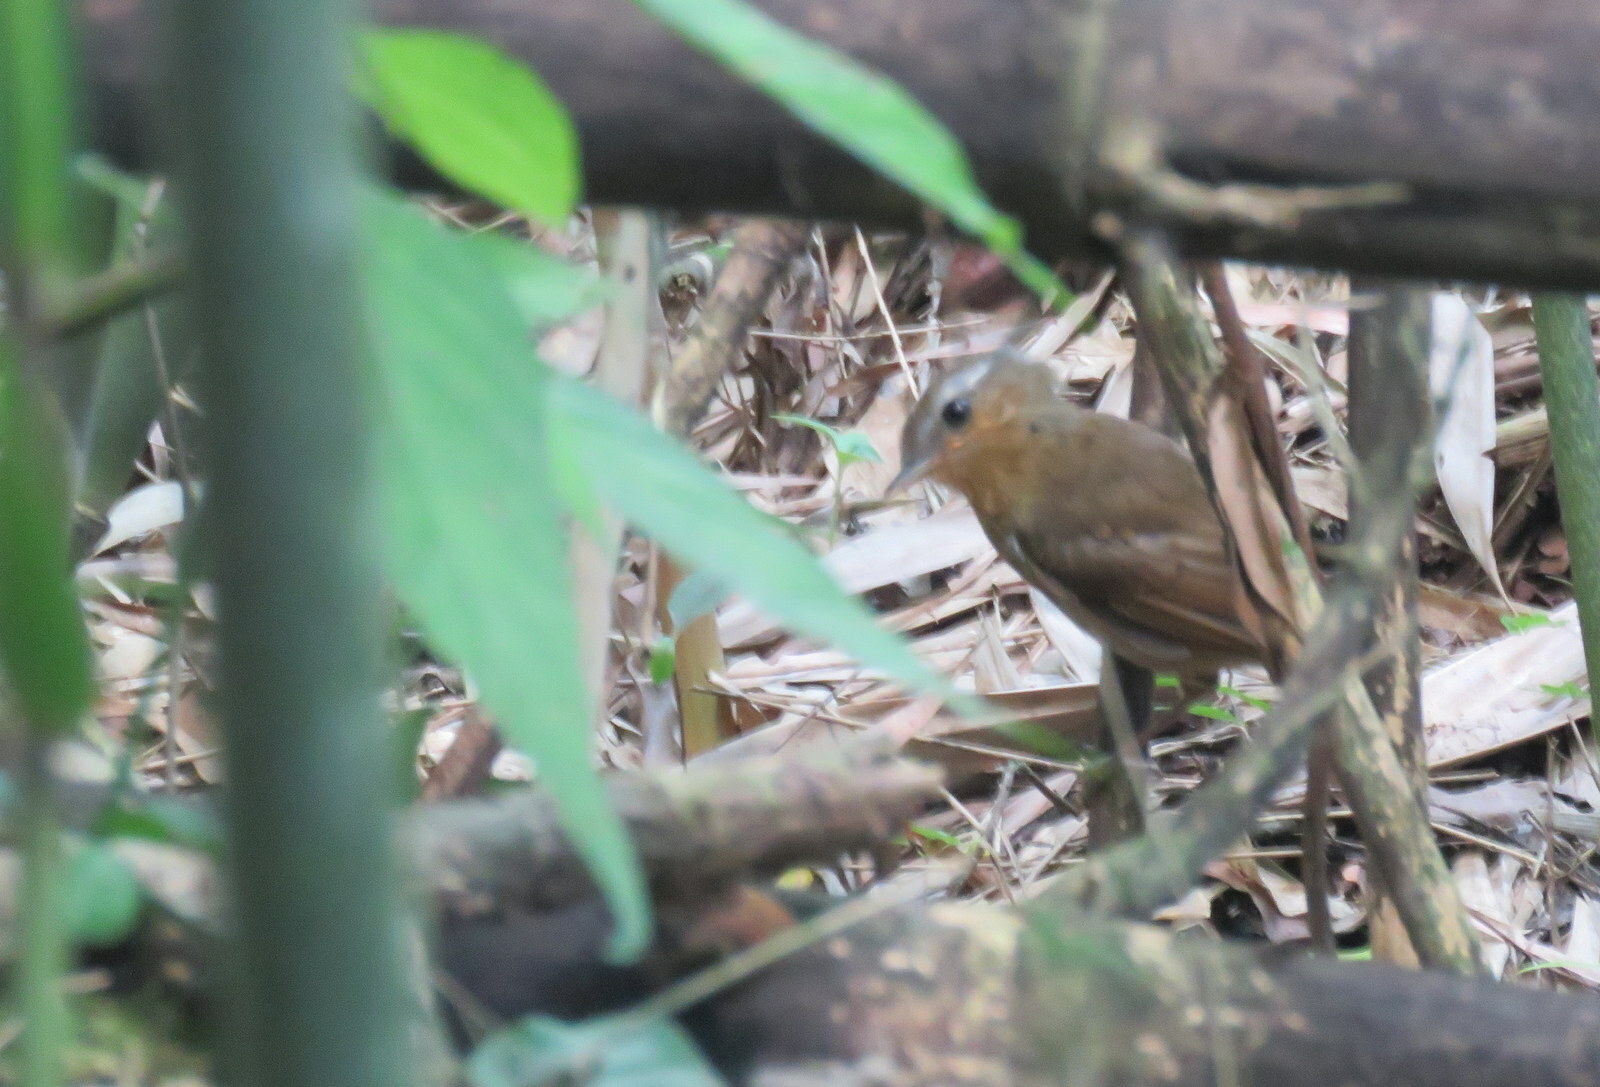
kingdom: Animalia
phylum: Chordata
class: Aves
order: Passeriformes
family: Conopophagidae
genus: Conopophaga
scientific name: Conopophaga lineata
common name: Rufous gnateater
